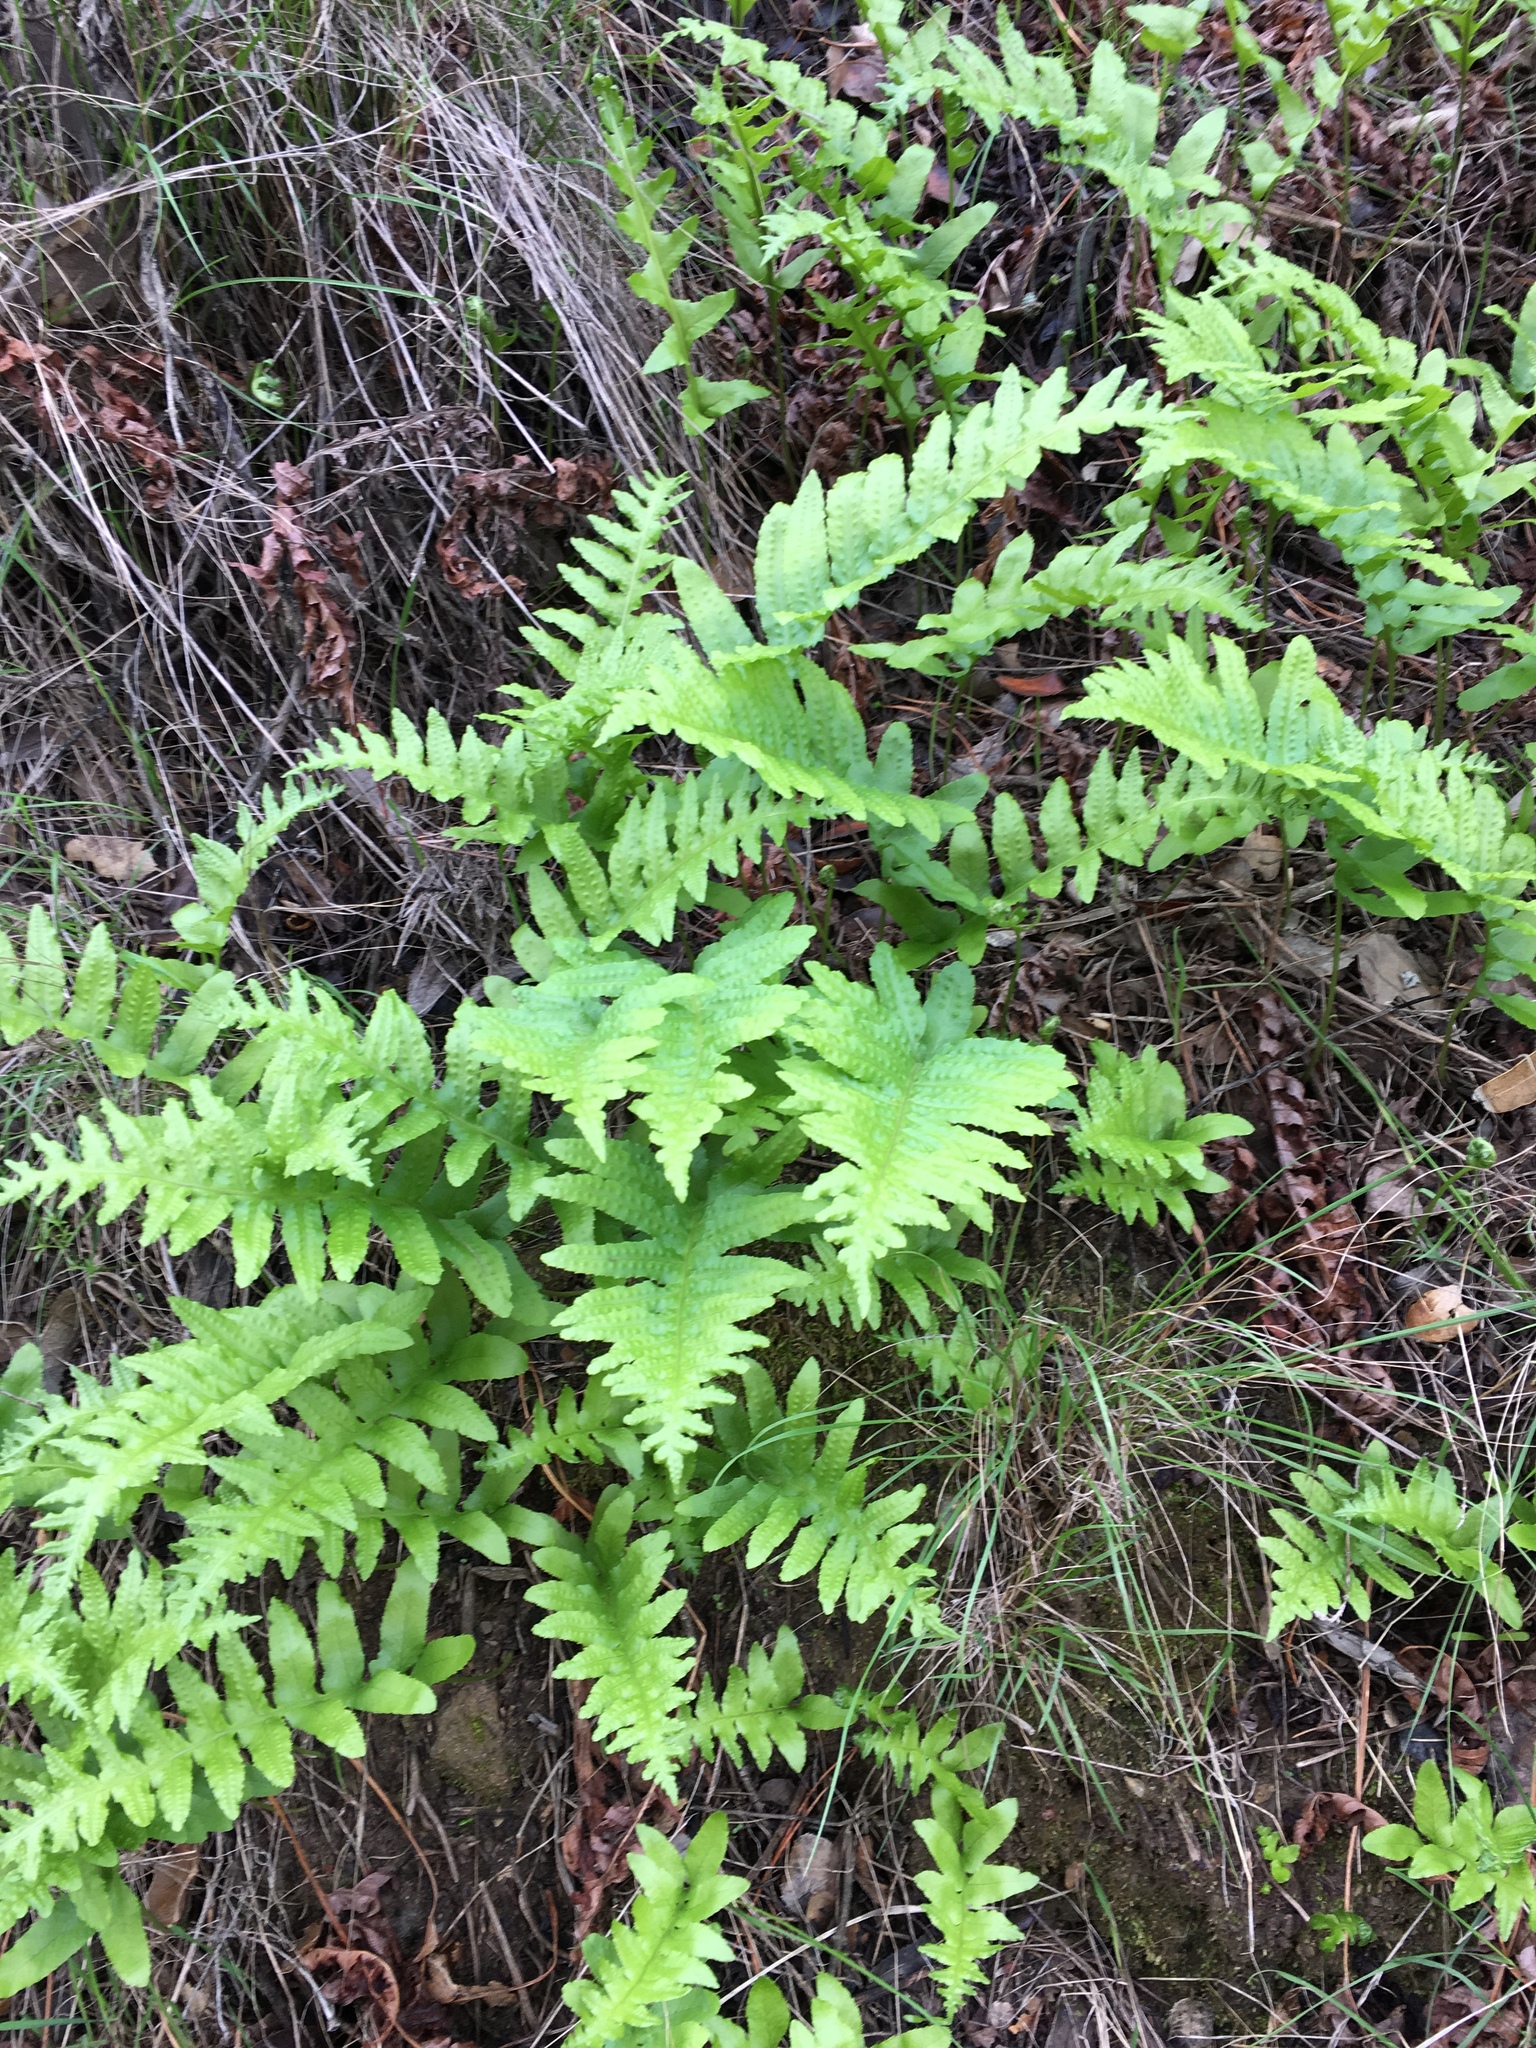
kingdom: Plantae
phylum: Tracheophyta
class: Polypodiopsida
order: Polypodiales
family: Polypodiaceae
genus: Polypodium
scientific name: Polypodium californicum
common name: California polypody
